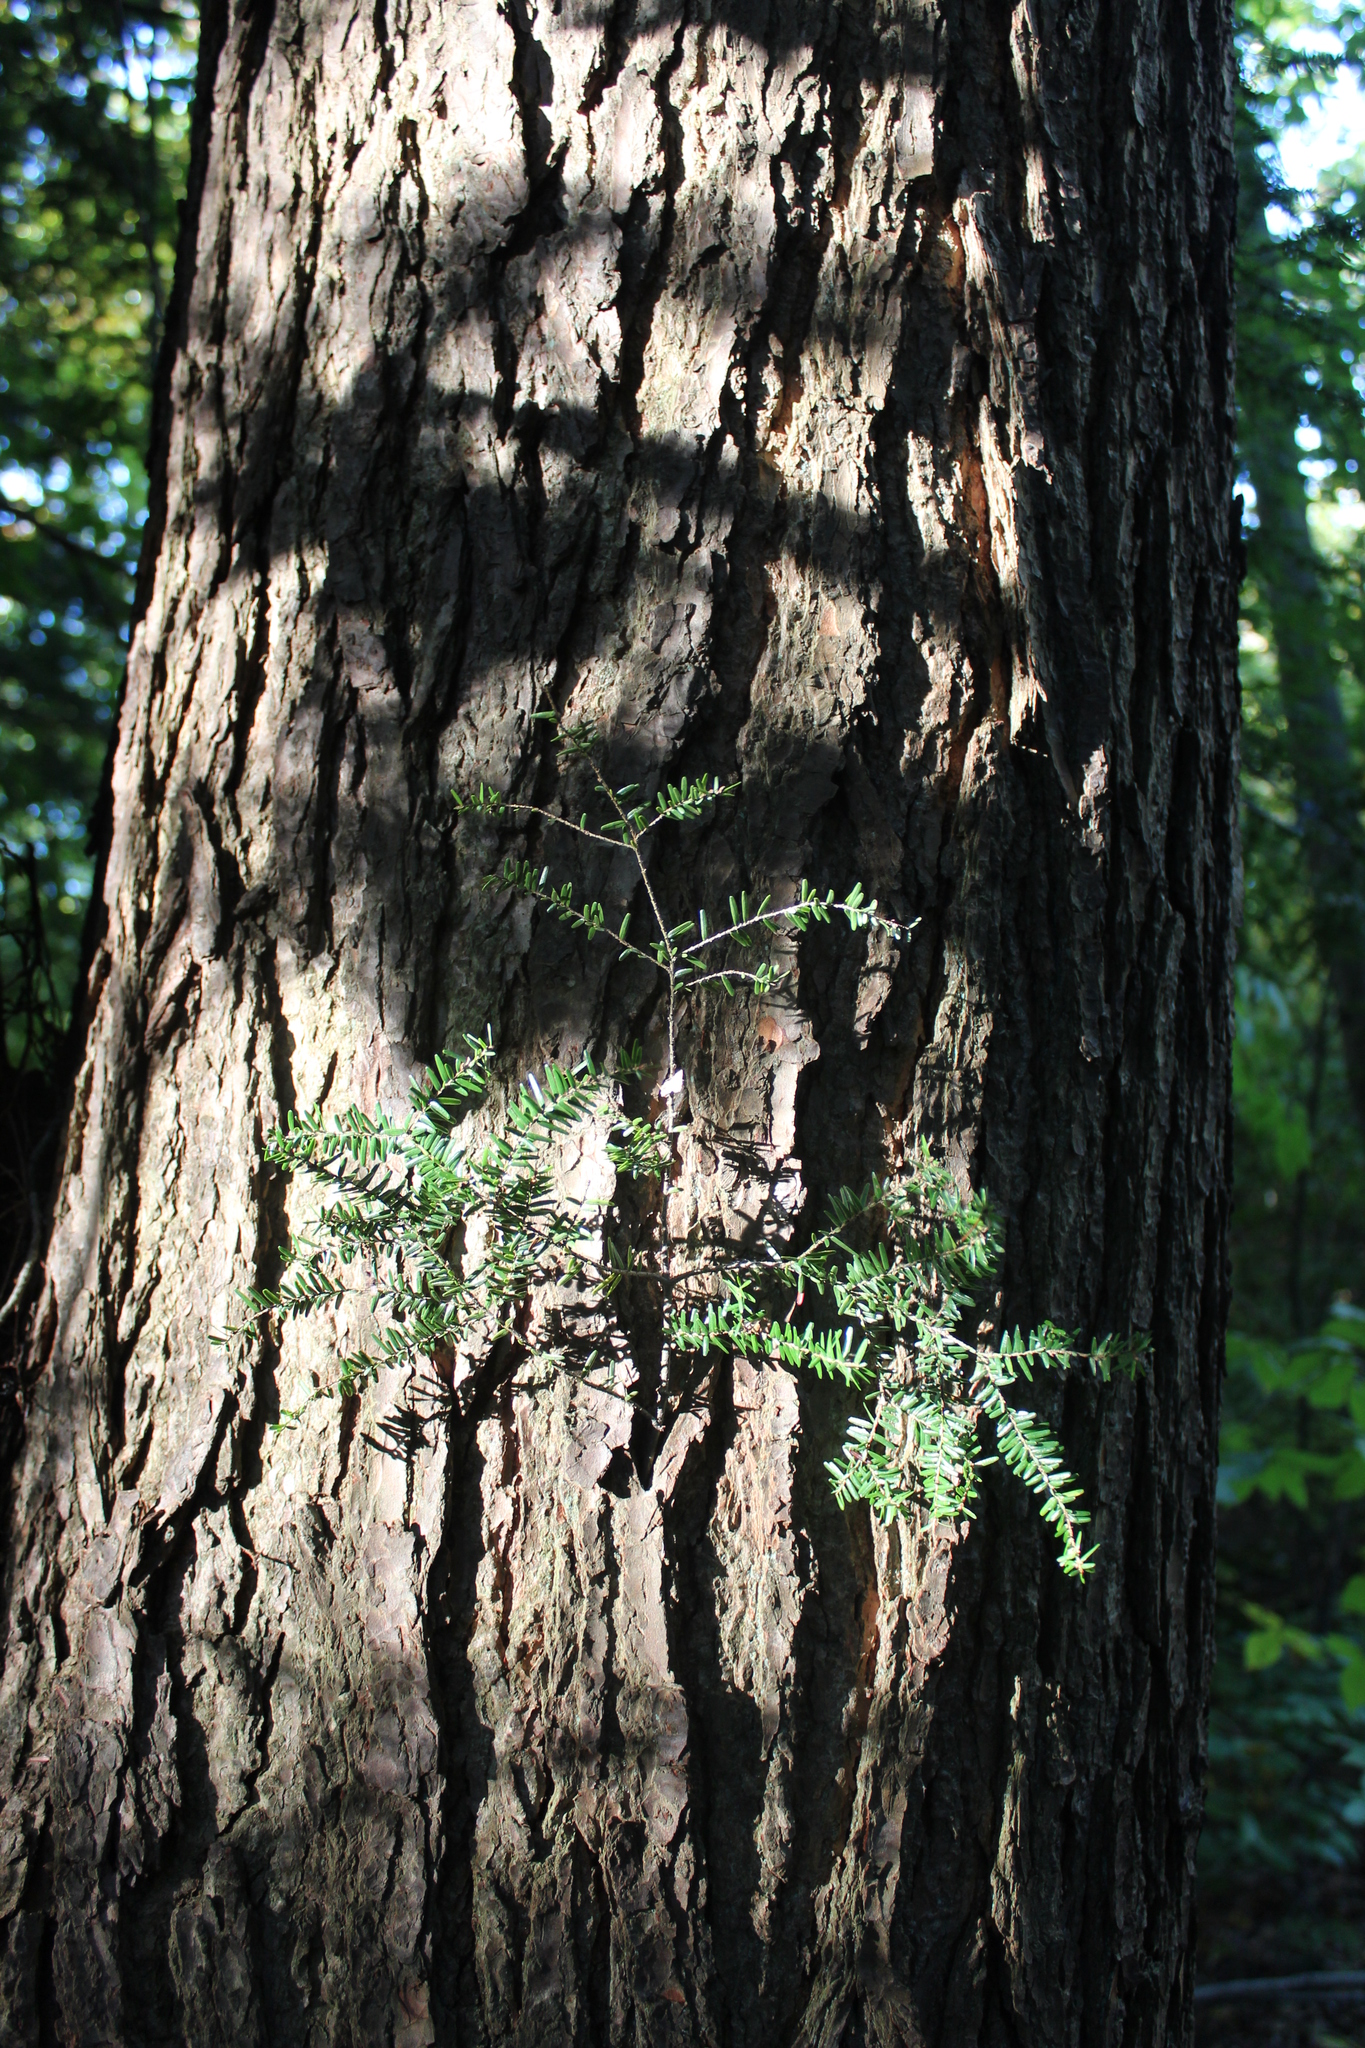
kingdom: Plantae
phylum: Tracheophyta
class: Pinopsida
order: Pinales
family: Pinaceae
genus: Tsuga
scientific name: Tsuga canadensis
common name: Eastern hemlock
